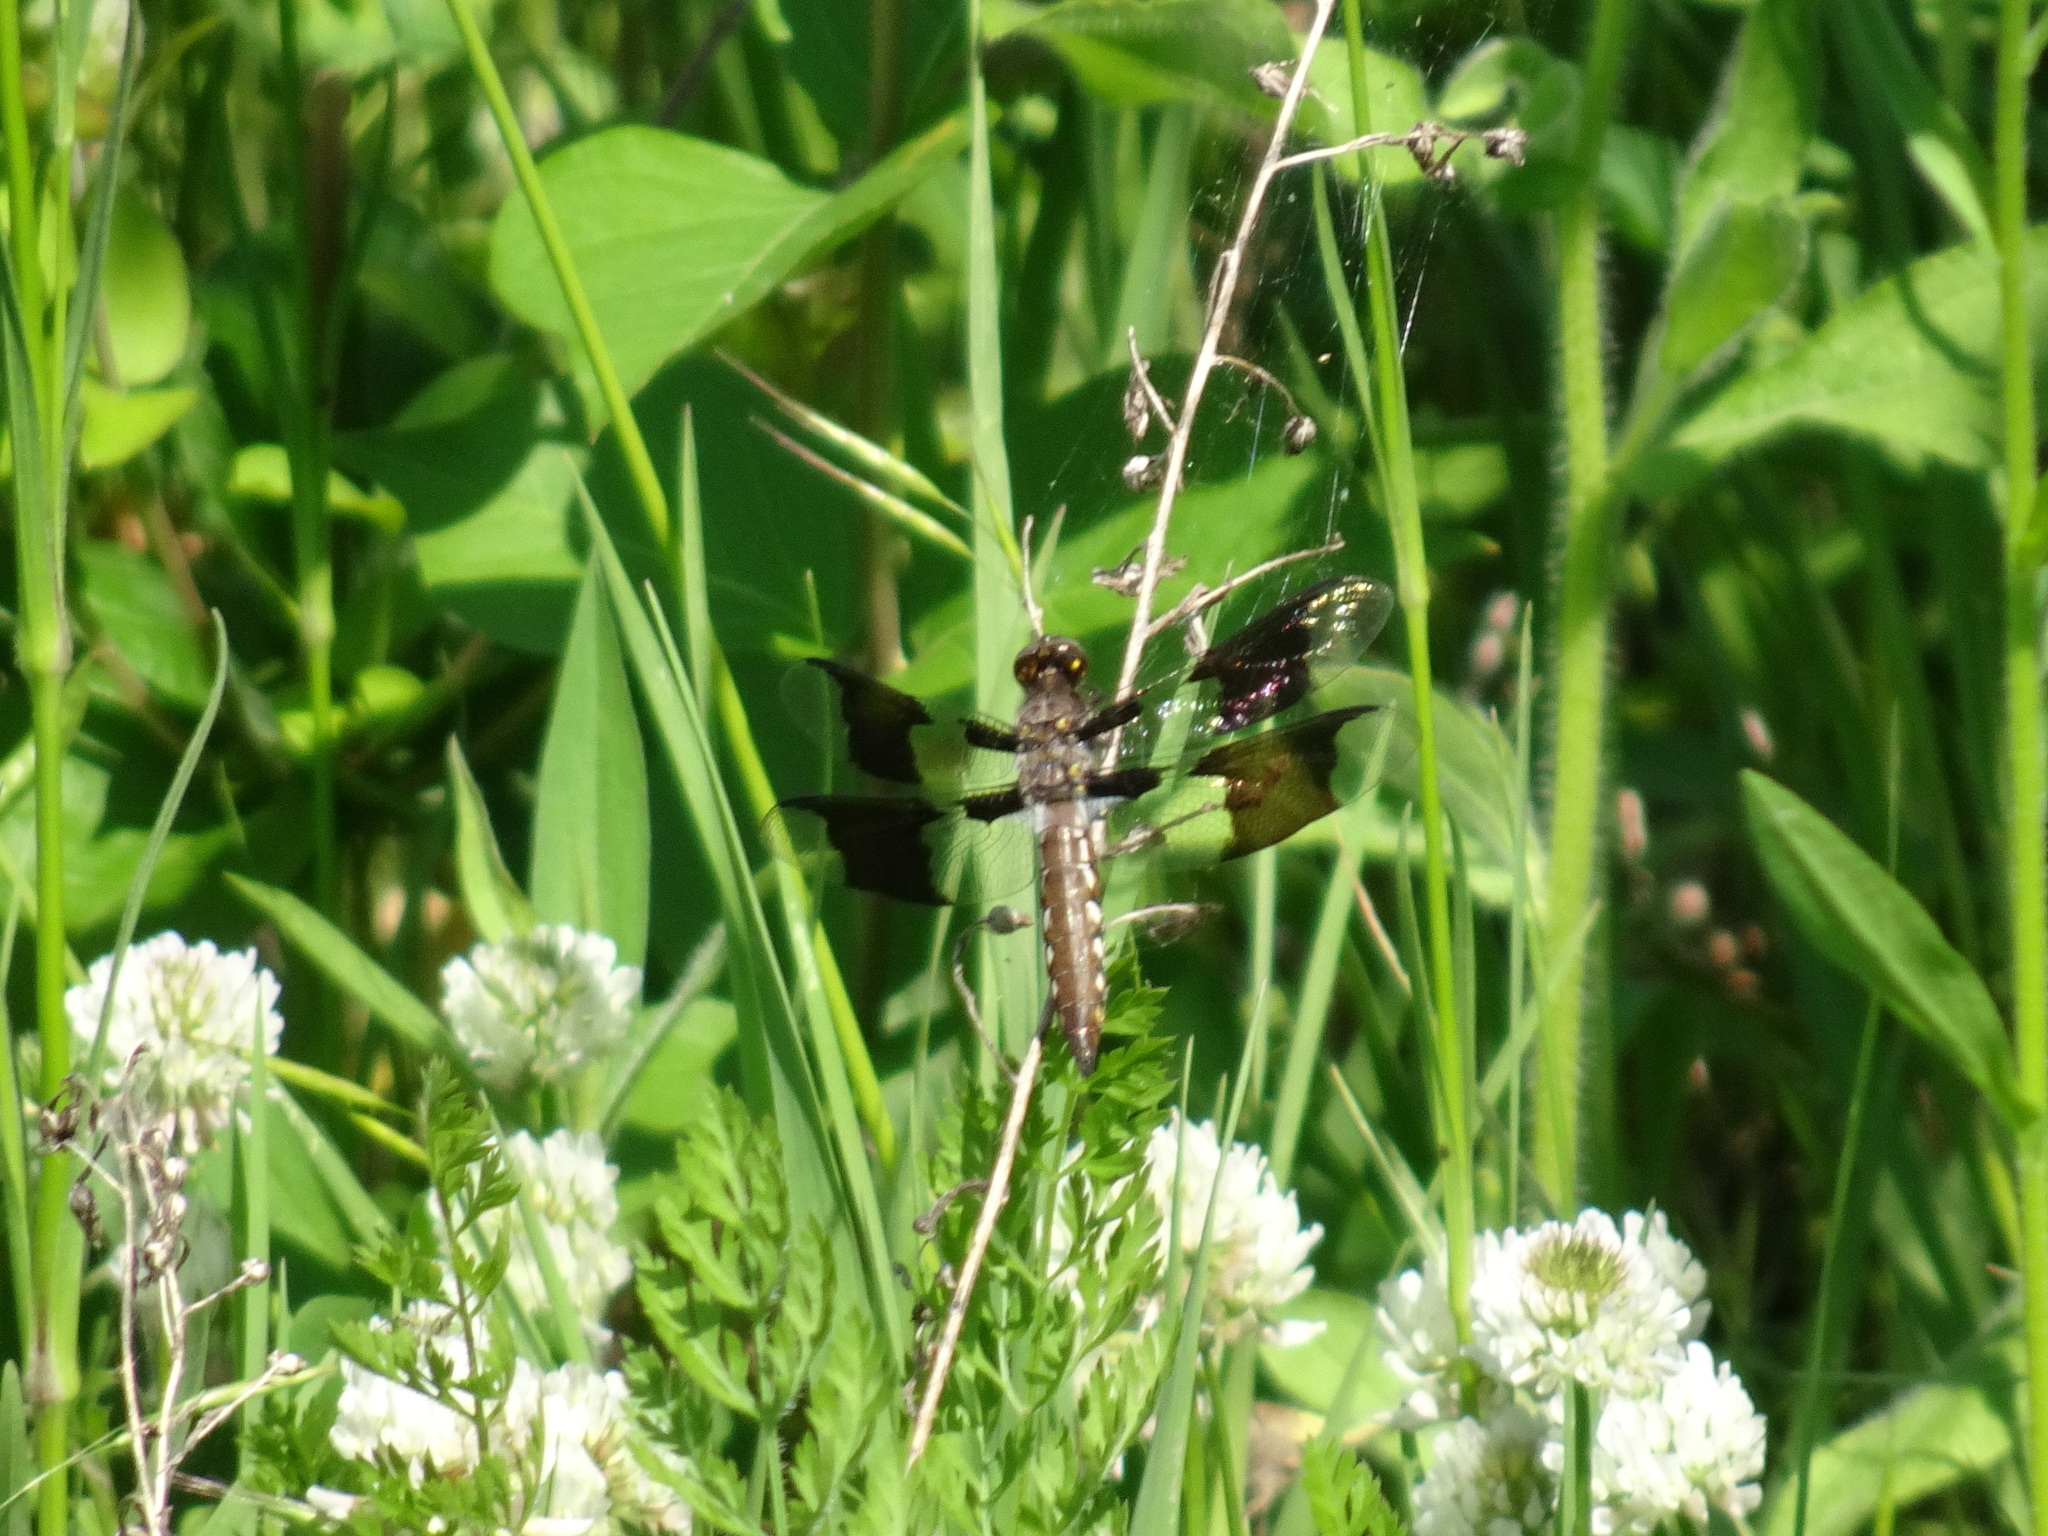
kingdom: Animalia
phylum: Arthropoda
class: Insecta
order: Odonata
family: Libellulidae
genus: Plathemis
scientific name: Plathemis lydia
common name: Common whitetail
